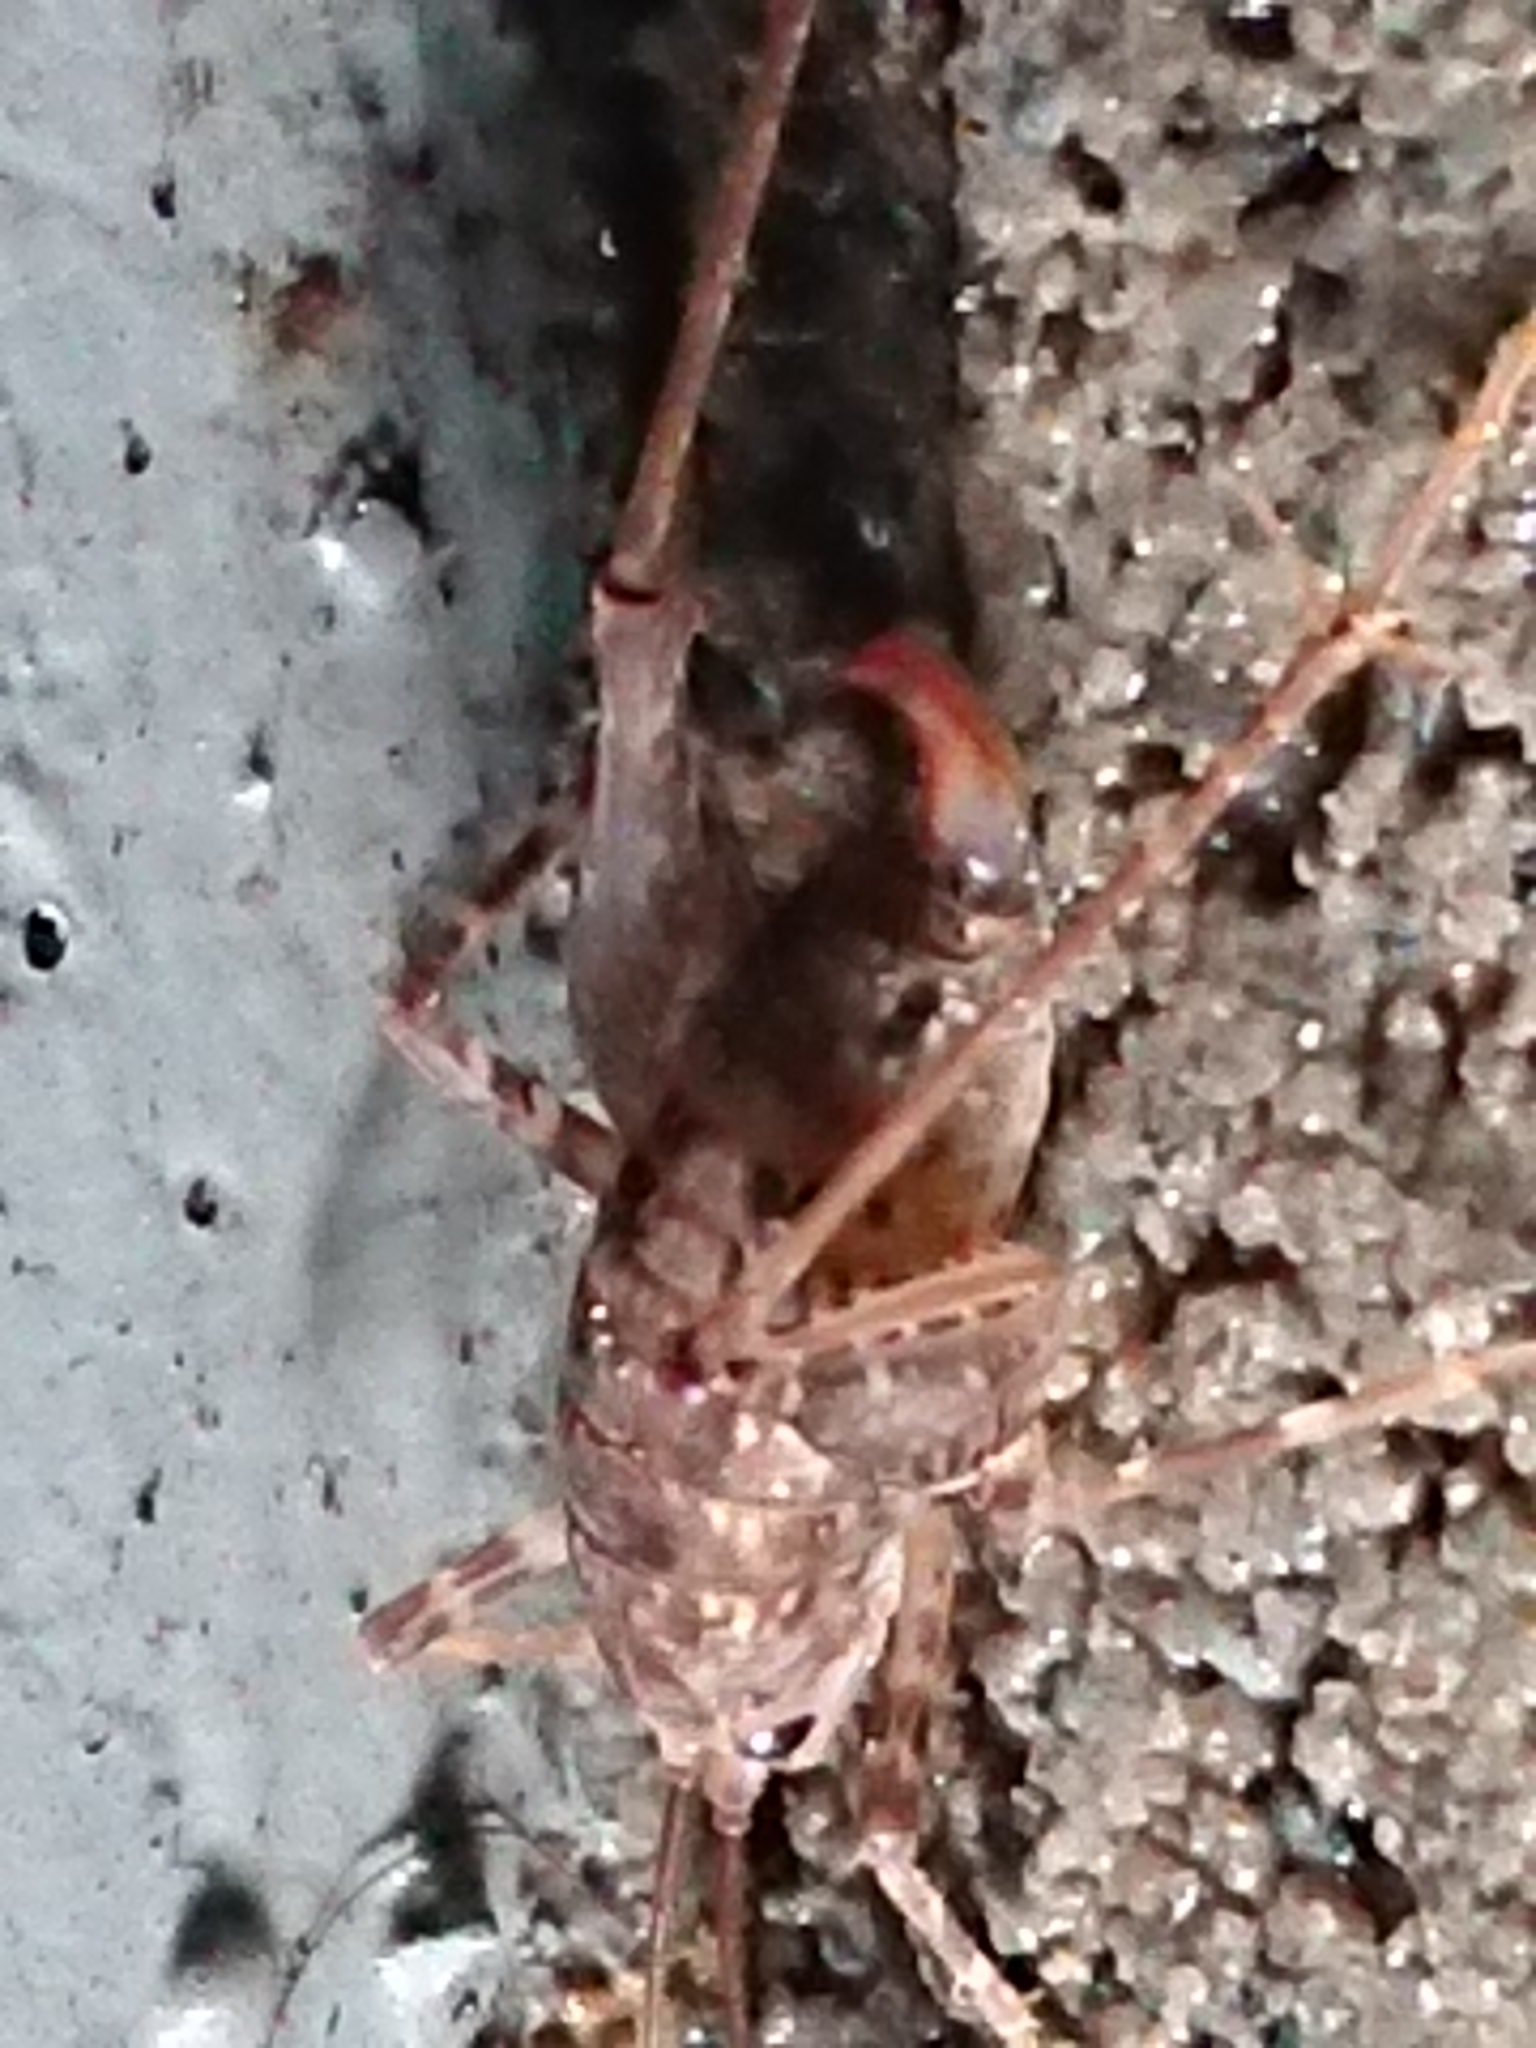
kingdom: Animalia
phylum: Arthropoda
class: Insecta
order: Orthoptera
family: Rhaphidophoridae
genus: Pleioplectron
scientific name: Pleioplectron simplex
